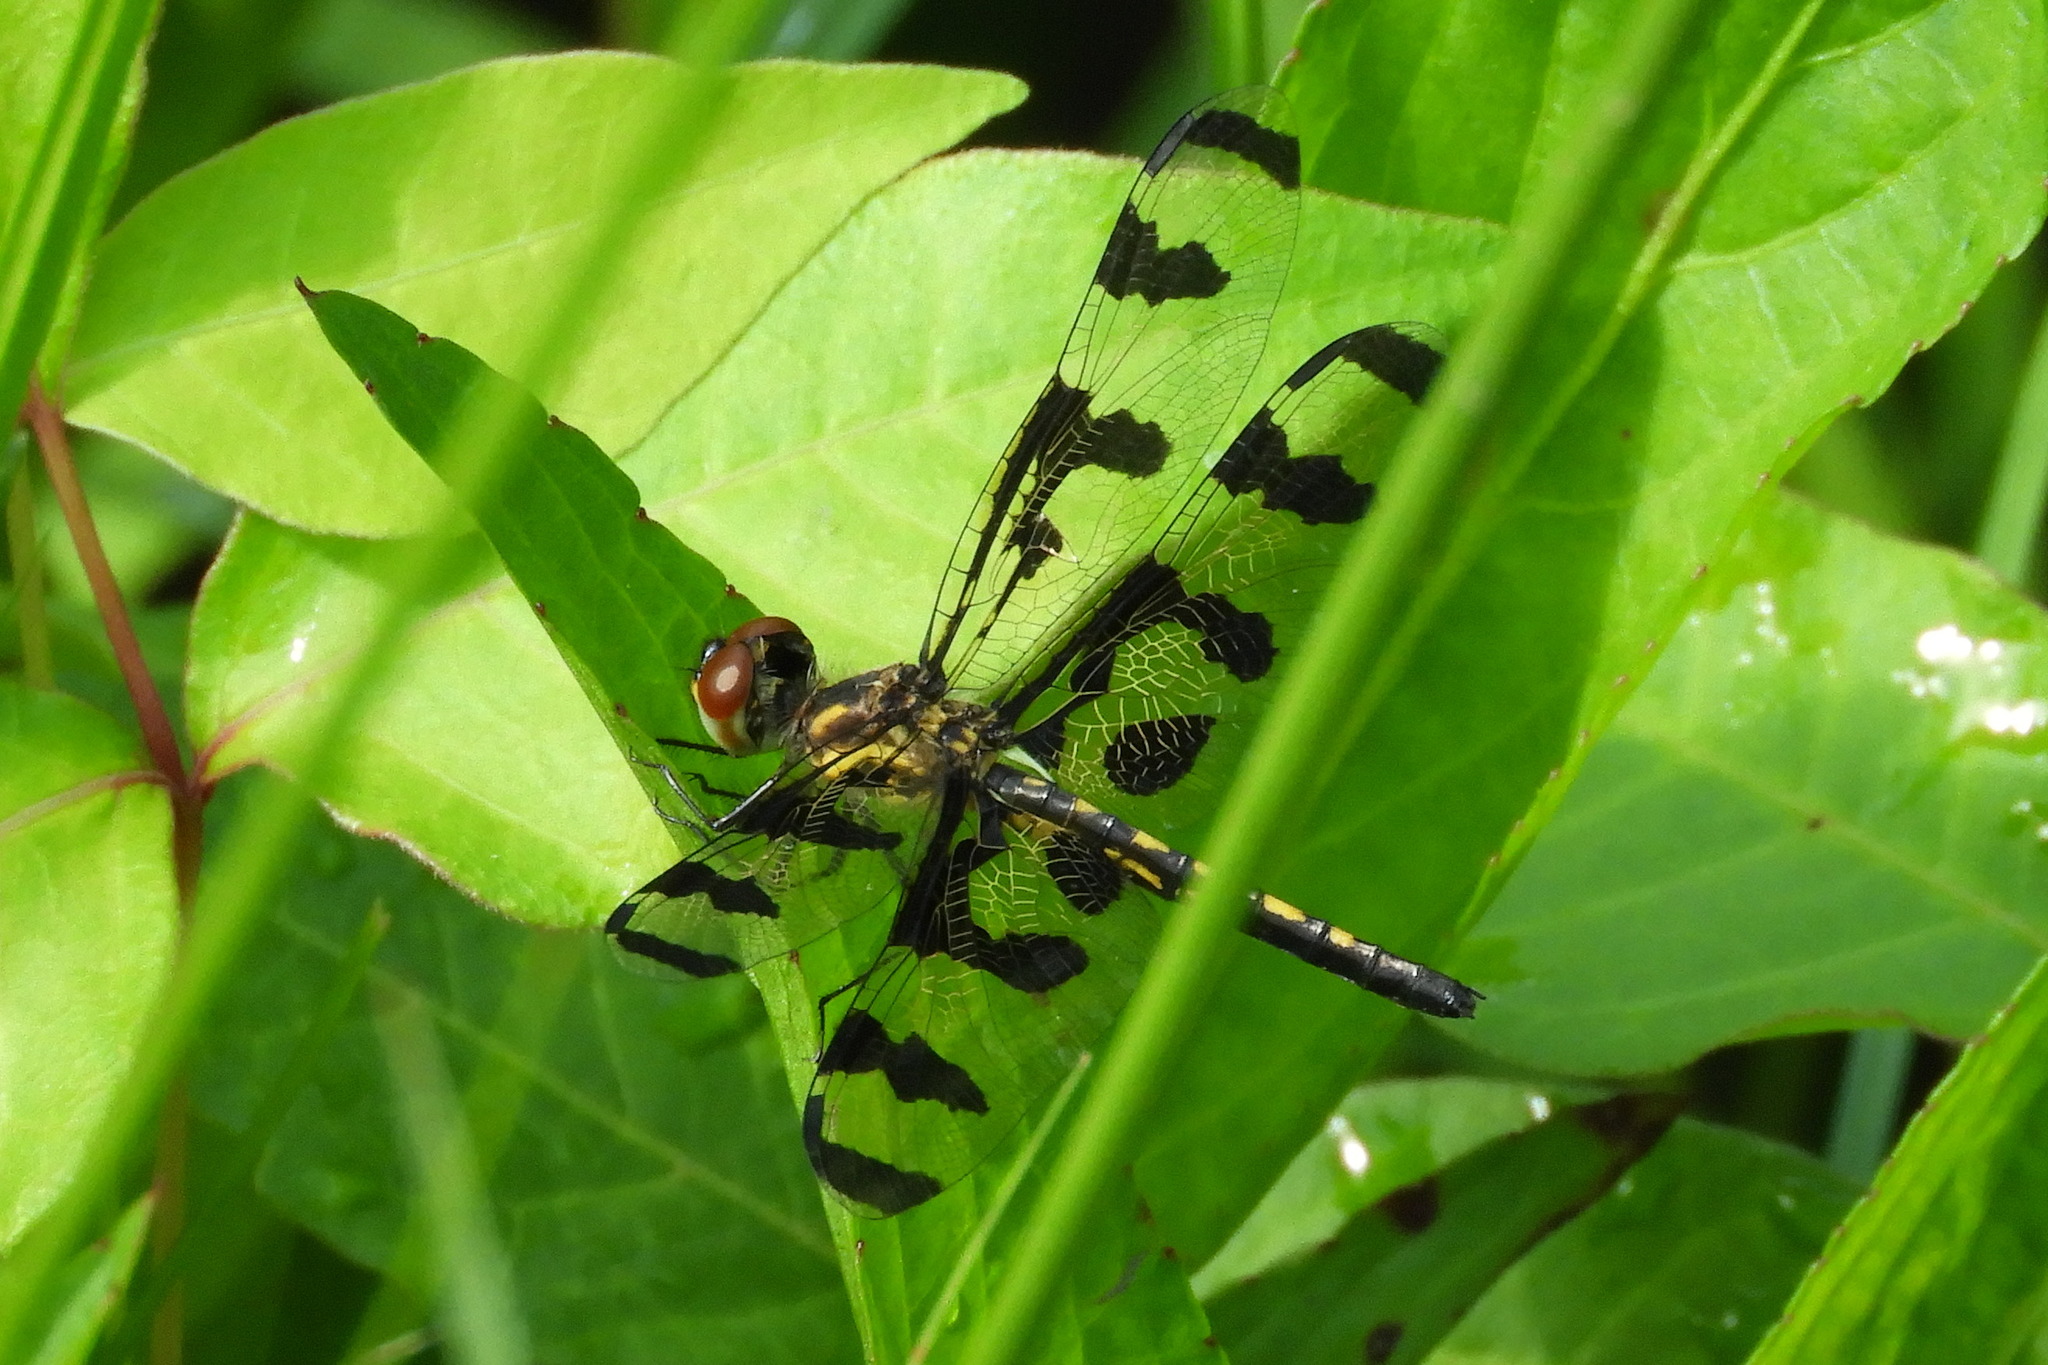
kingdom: Animalia
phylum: Arthropoda
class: Insecta
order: Odonata
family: Libellulidae
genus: Celithemis
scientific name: Celithemis fasciata
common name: Banded pennant
